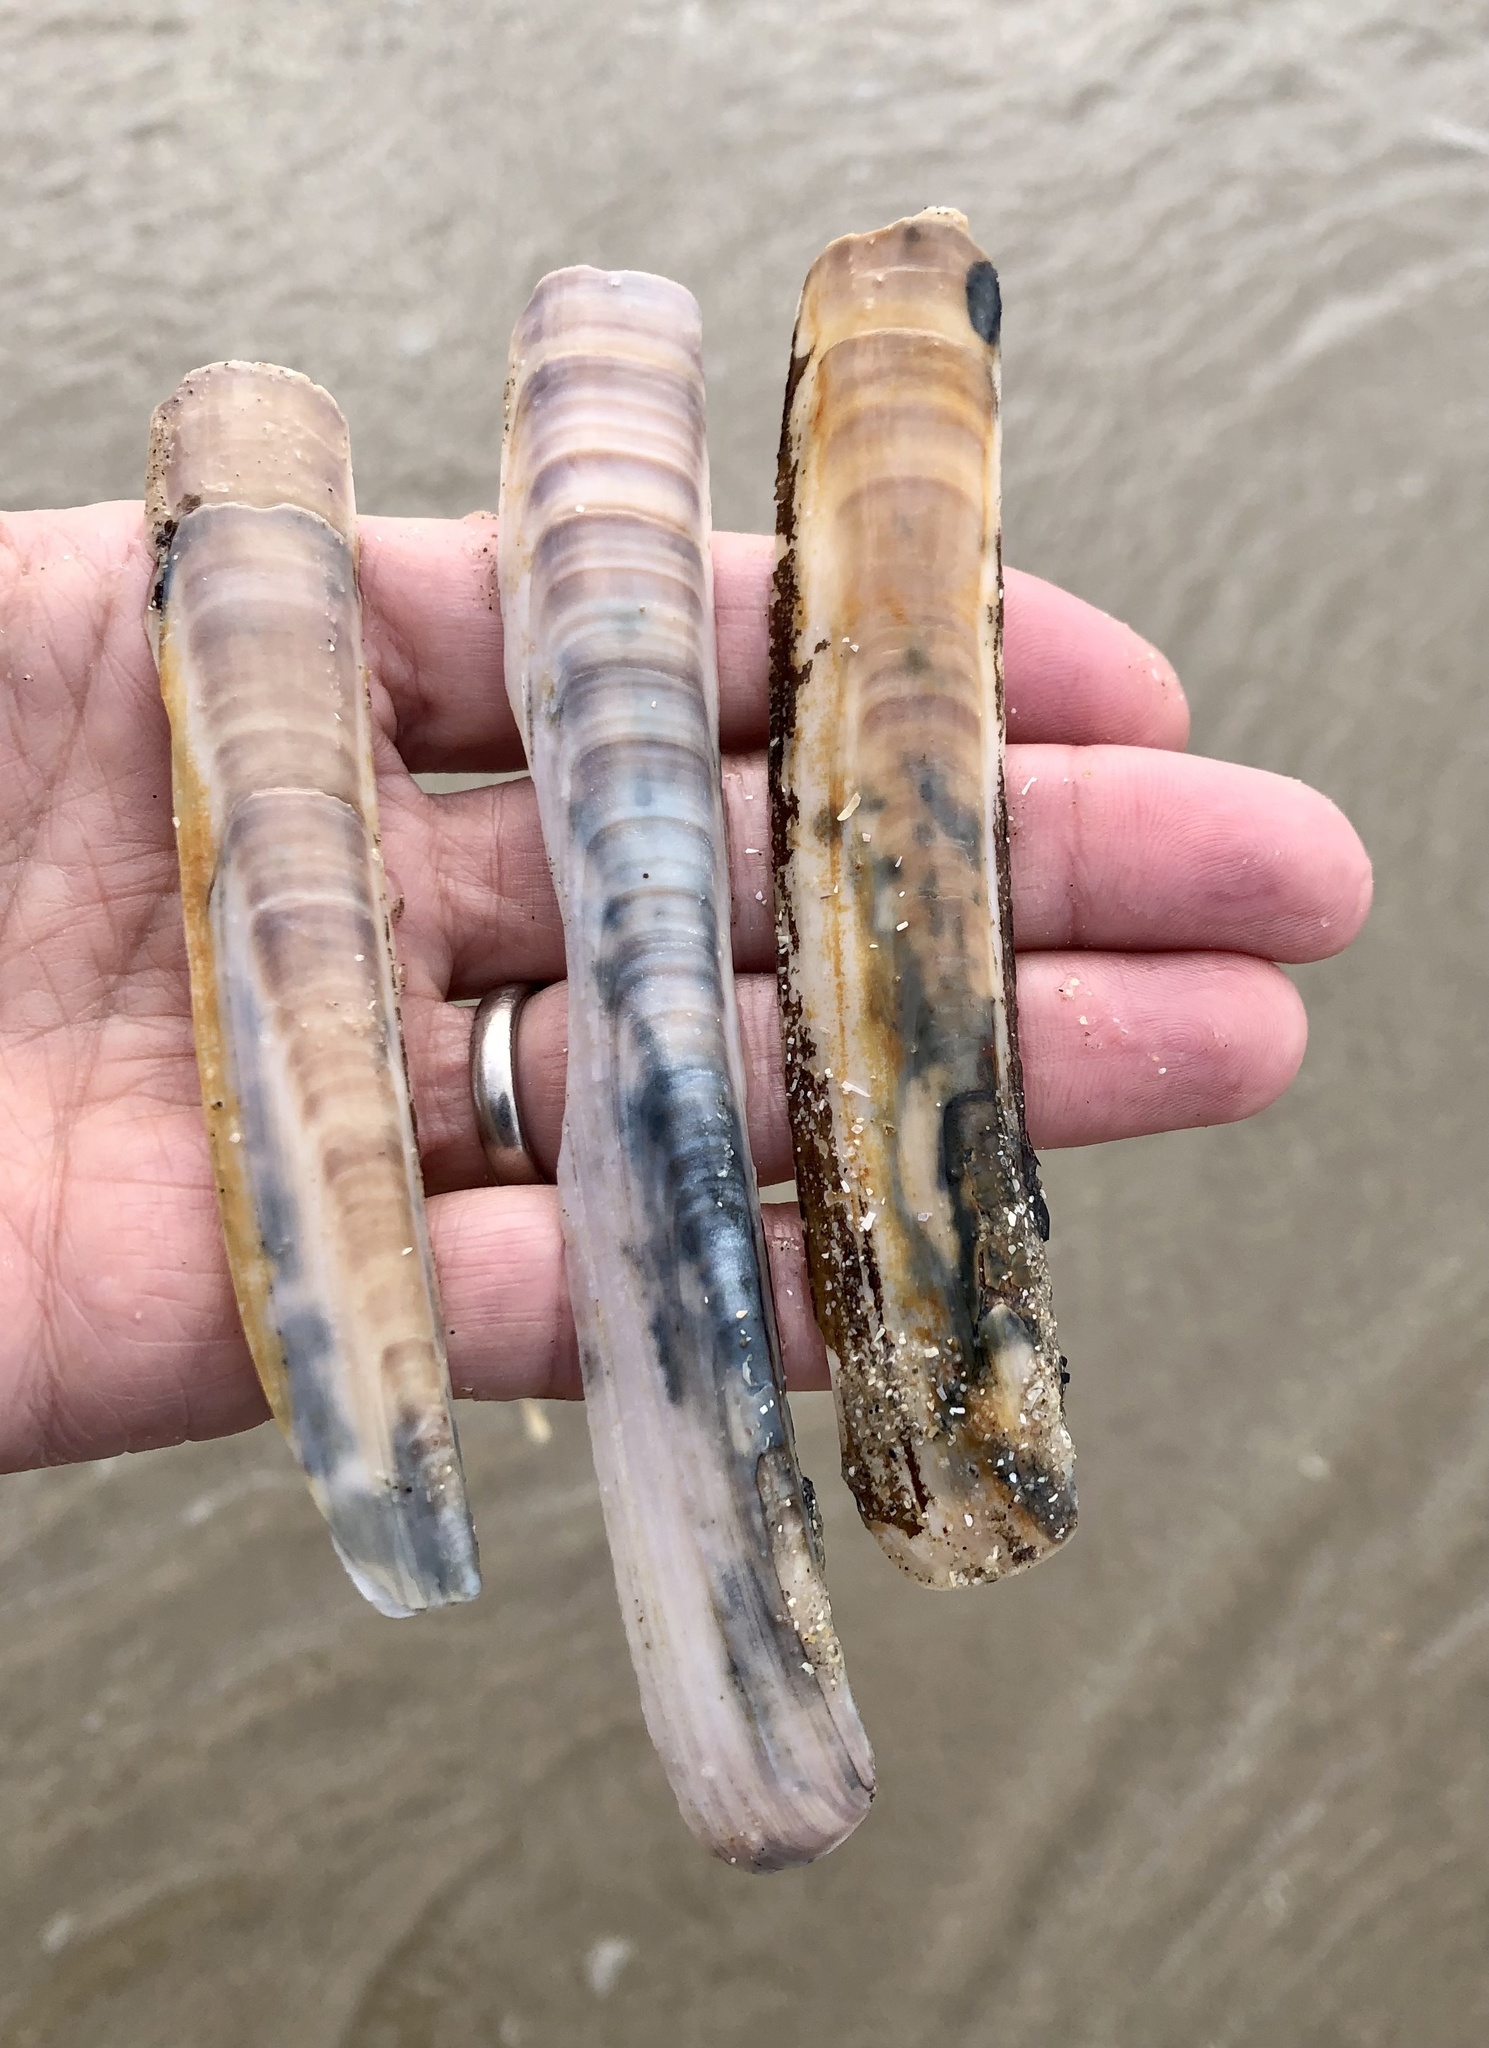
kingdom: Animalia
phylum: Mollusca
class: Bivalvia
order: Adapedonta
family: Pharidae
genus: Ensis
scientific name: Ensis leei
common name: American jack knife clam
